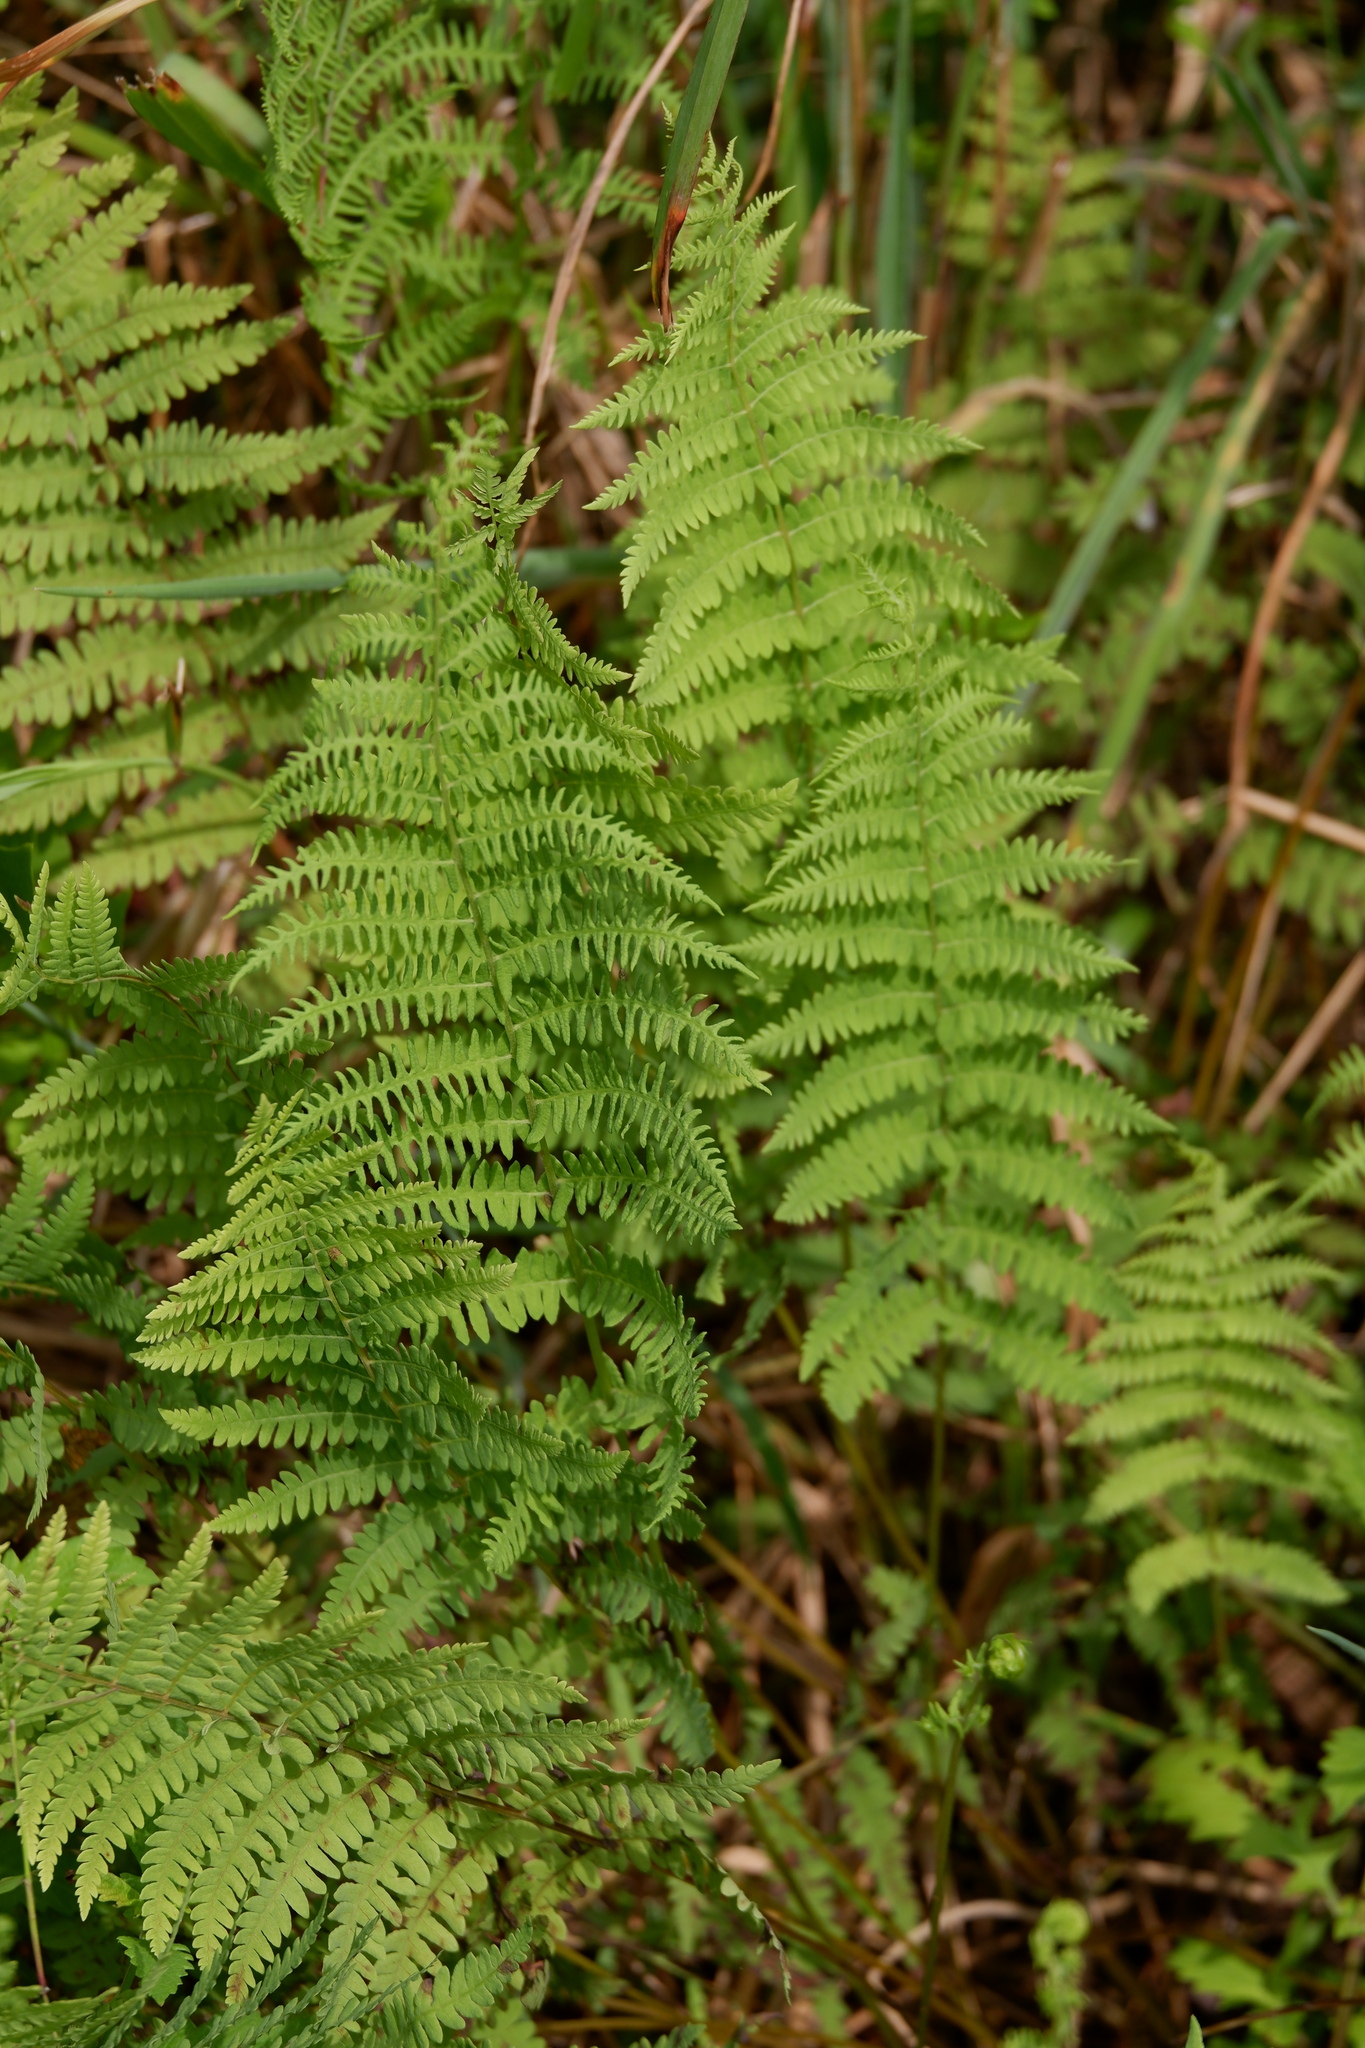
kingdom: Plantae
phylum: Tracheophyta
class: Polypodiopsida
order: Polypodiales
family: Thelypteridaceae
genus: Thelypteris
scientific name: Thelypteris palustris
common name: Marsh fern
